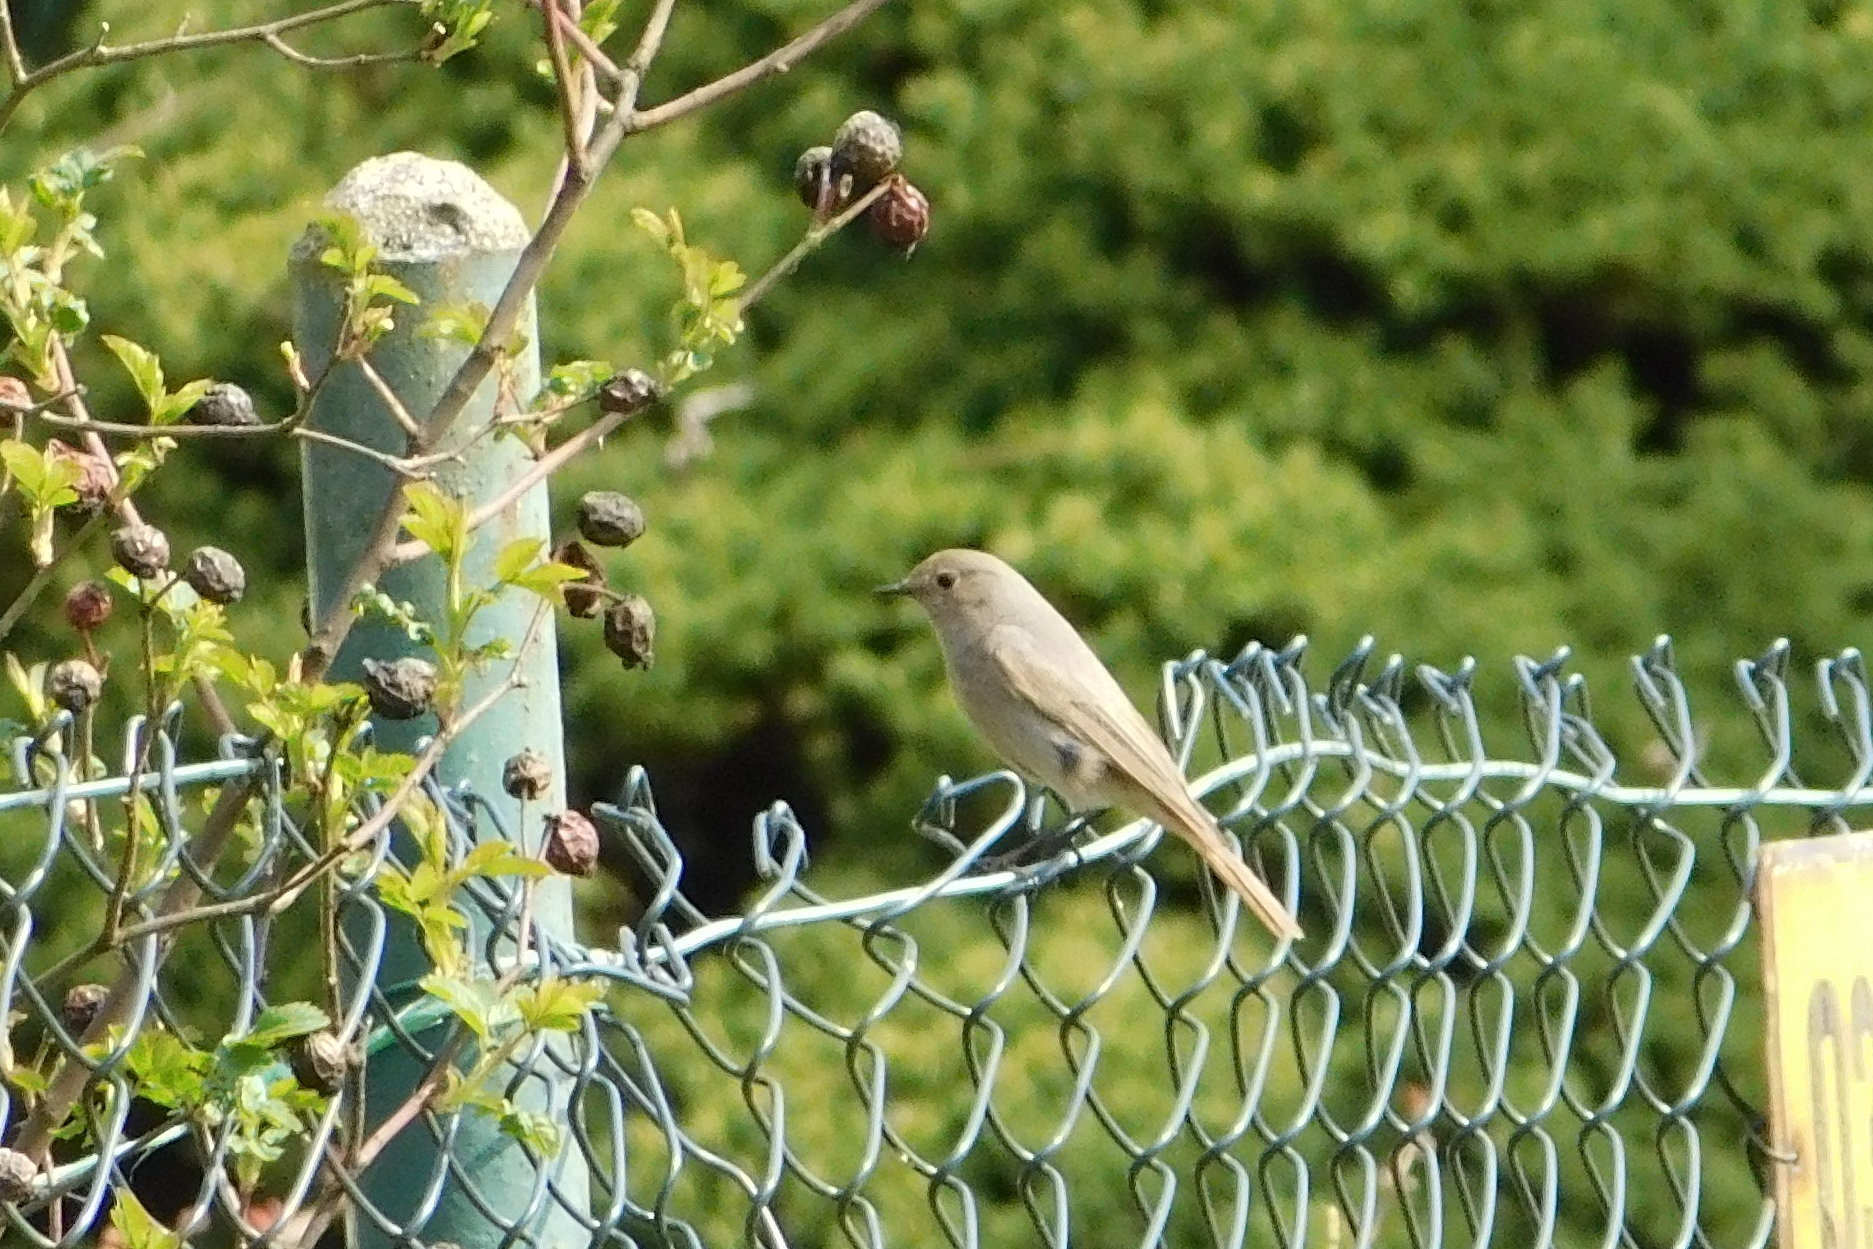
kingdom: Animalia
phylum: Chordata
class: Aves
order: Passeriformes
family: Muscicapidae
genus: Phoenicurus
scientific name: Phoenicurus ochruros
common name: Black redstart
